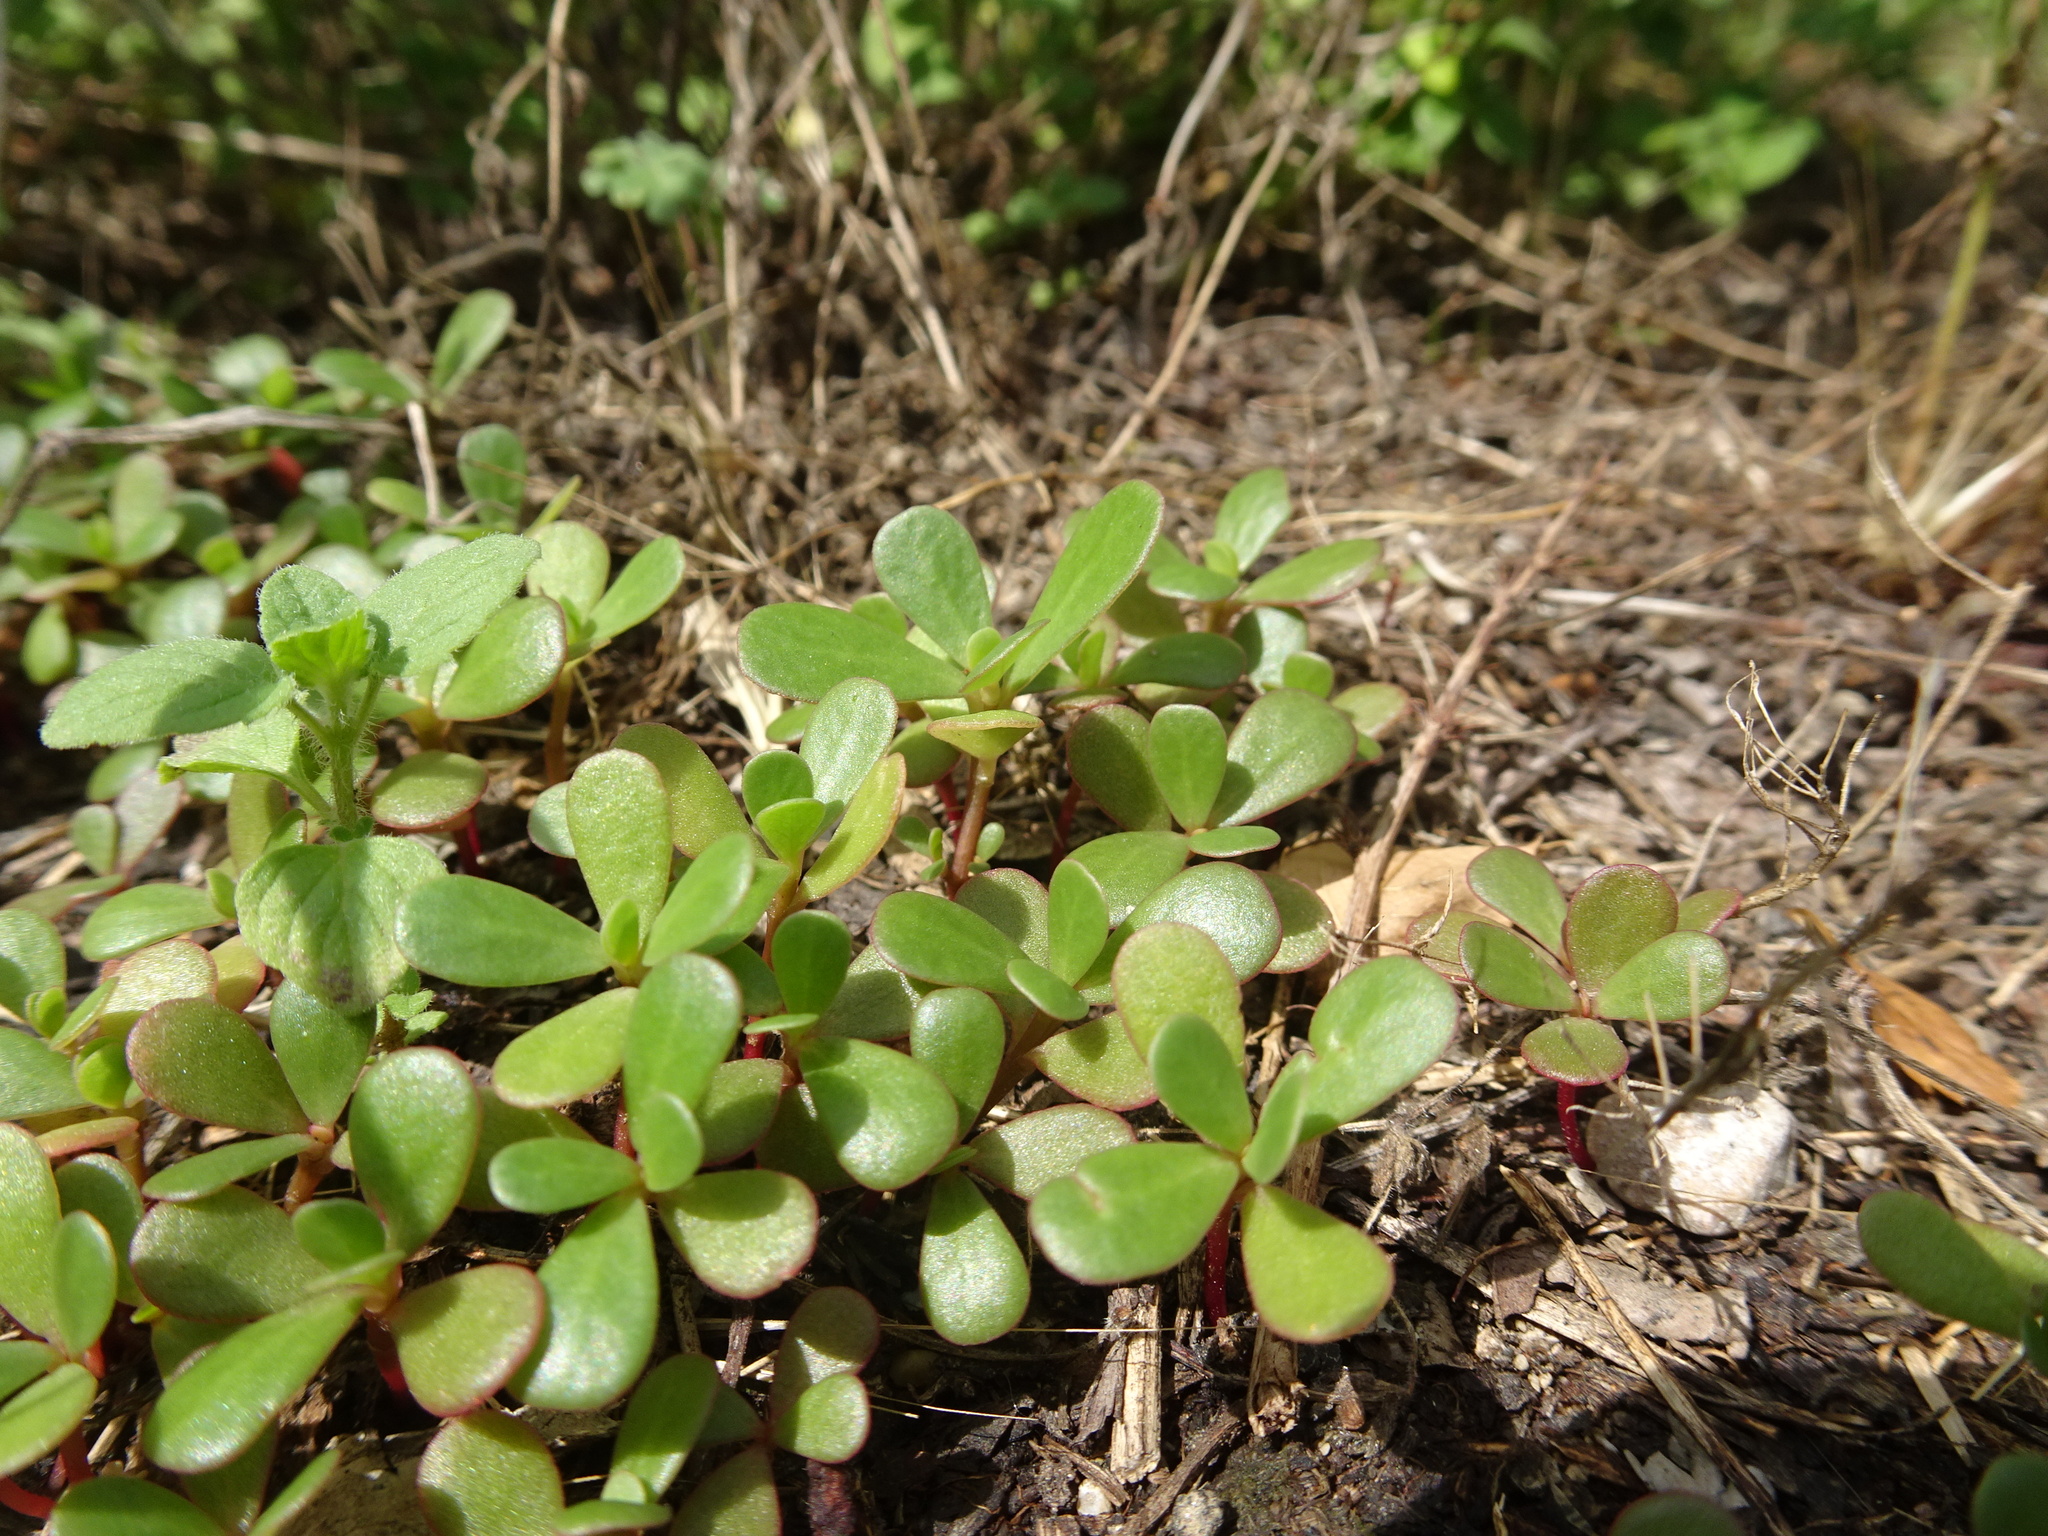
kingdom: Plantae
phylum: Tracheophyta
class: Magnoliopsida
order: Caryophyllales
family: Portulacaceae
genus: Portulaca
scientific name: Portulaca oleracea
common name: Common purslane
